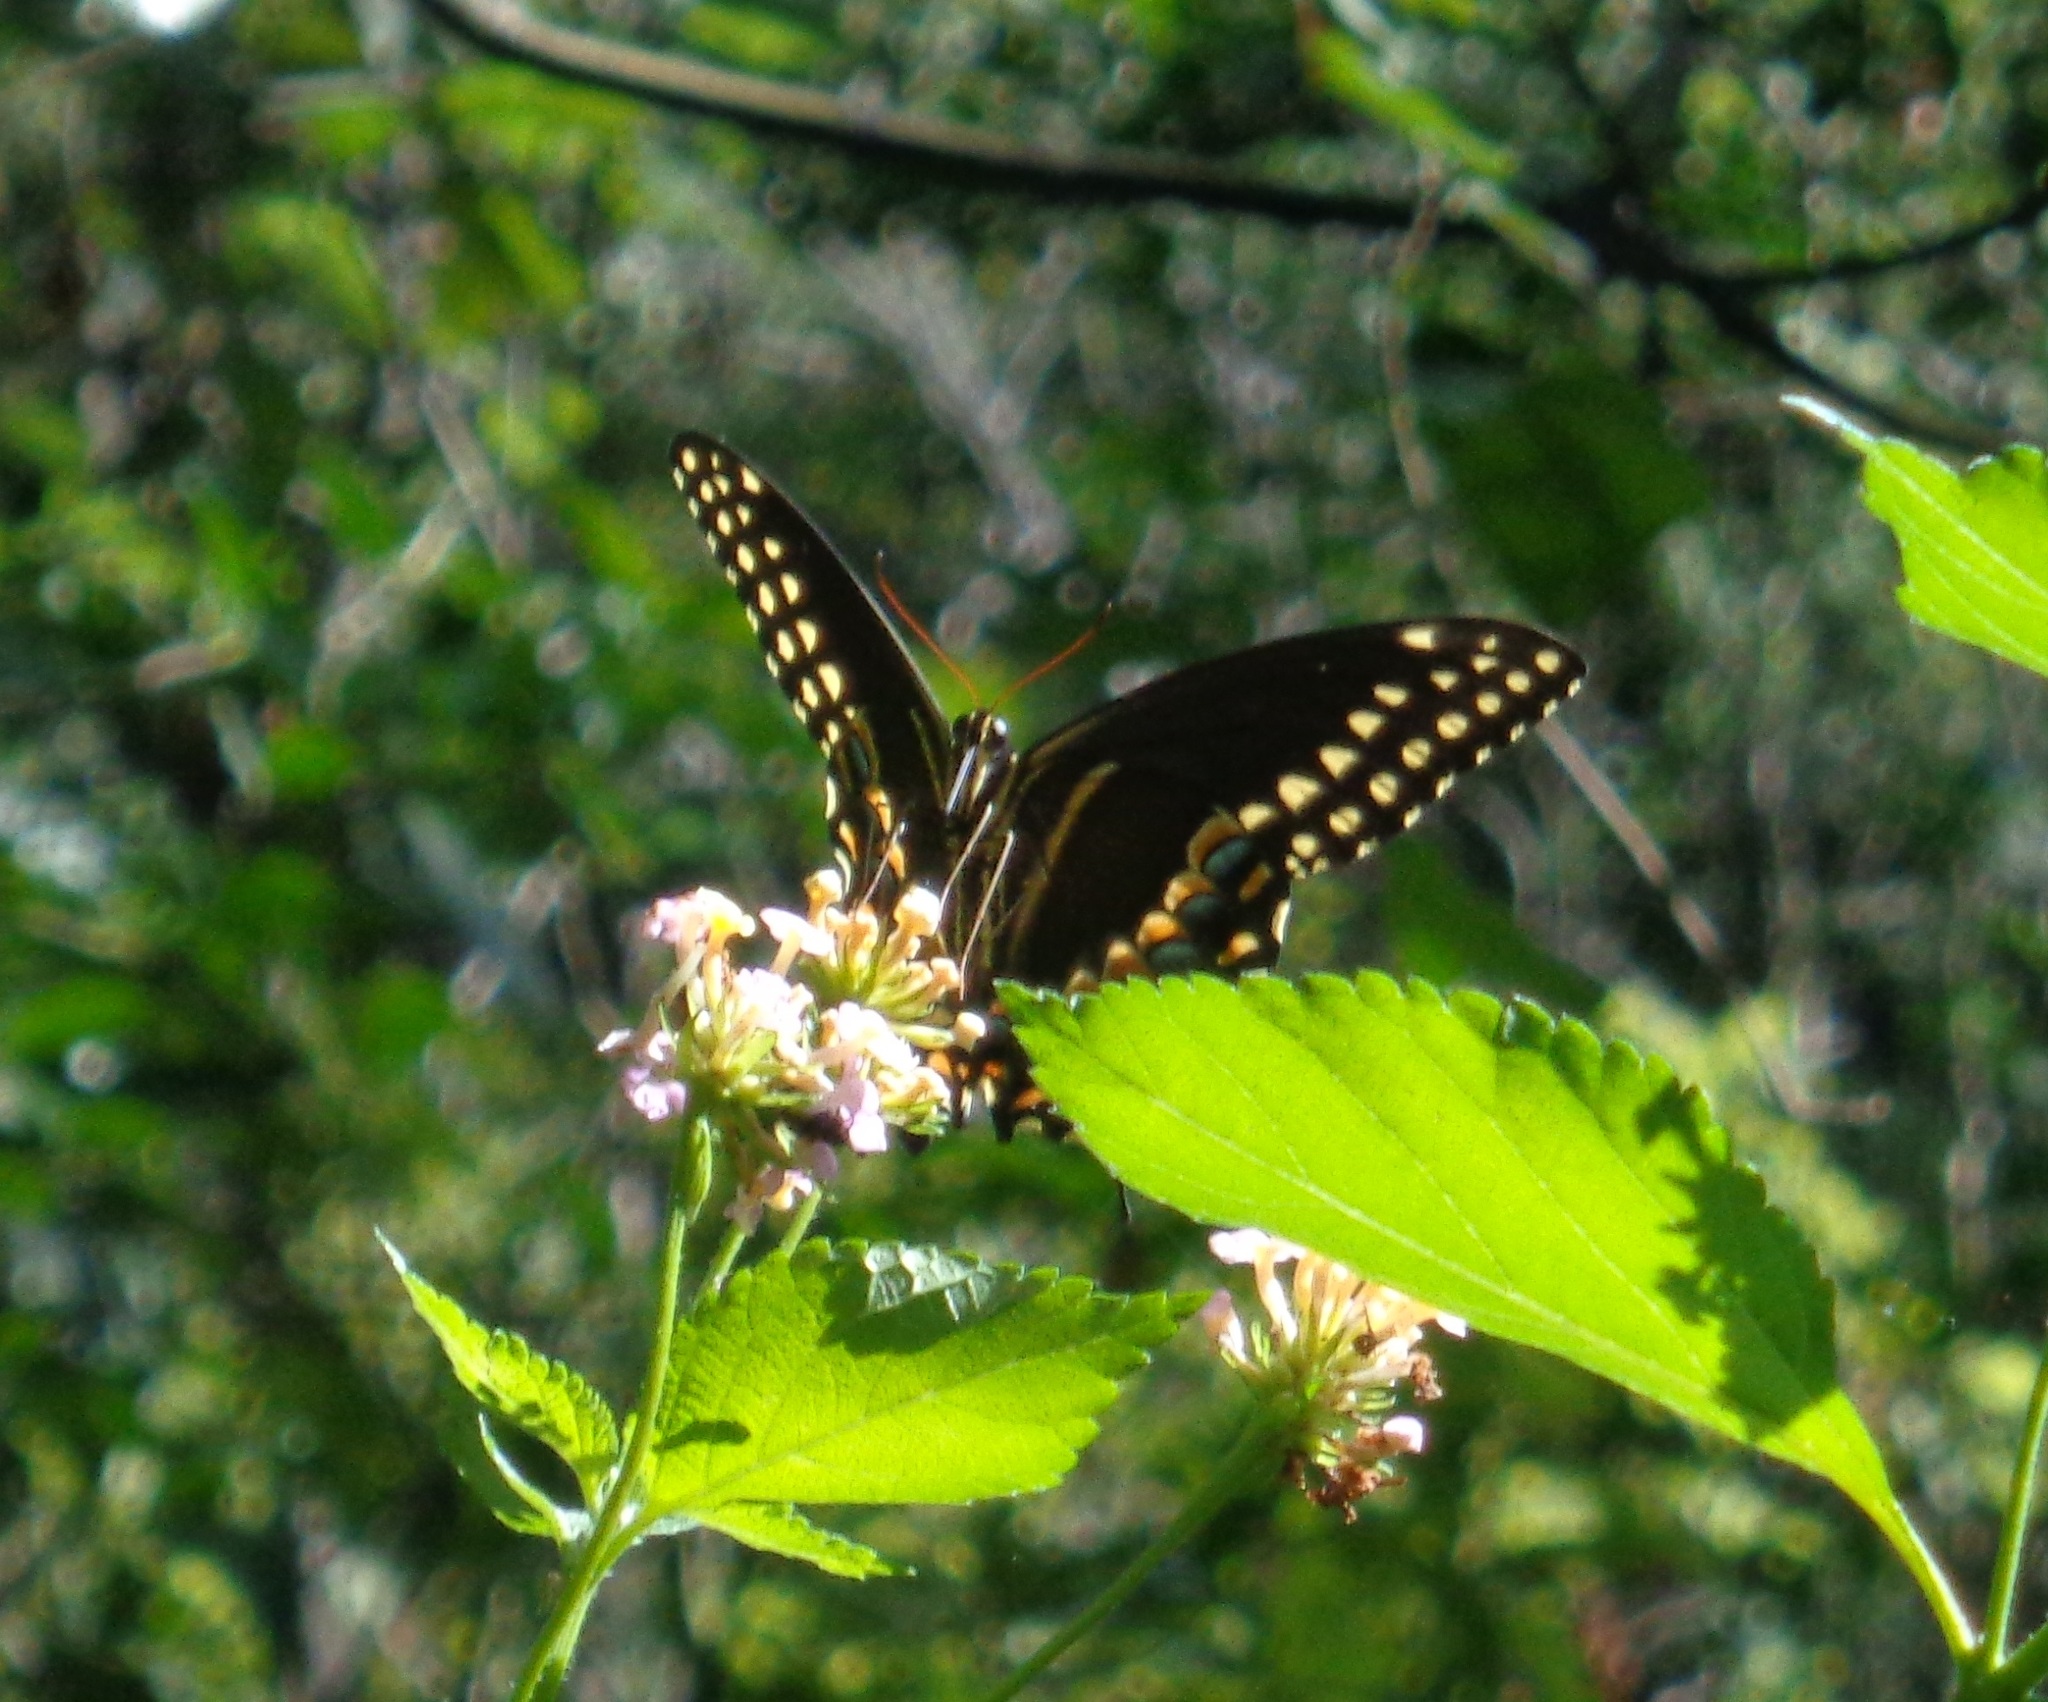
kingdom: Animalia
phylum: Arthropoda
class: Insecta
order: Lepidoptera
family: Papilionidae
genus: Papilio
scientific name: Papilio palamedes
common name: Palamedes swallowtail
